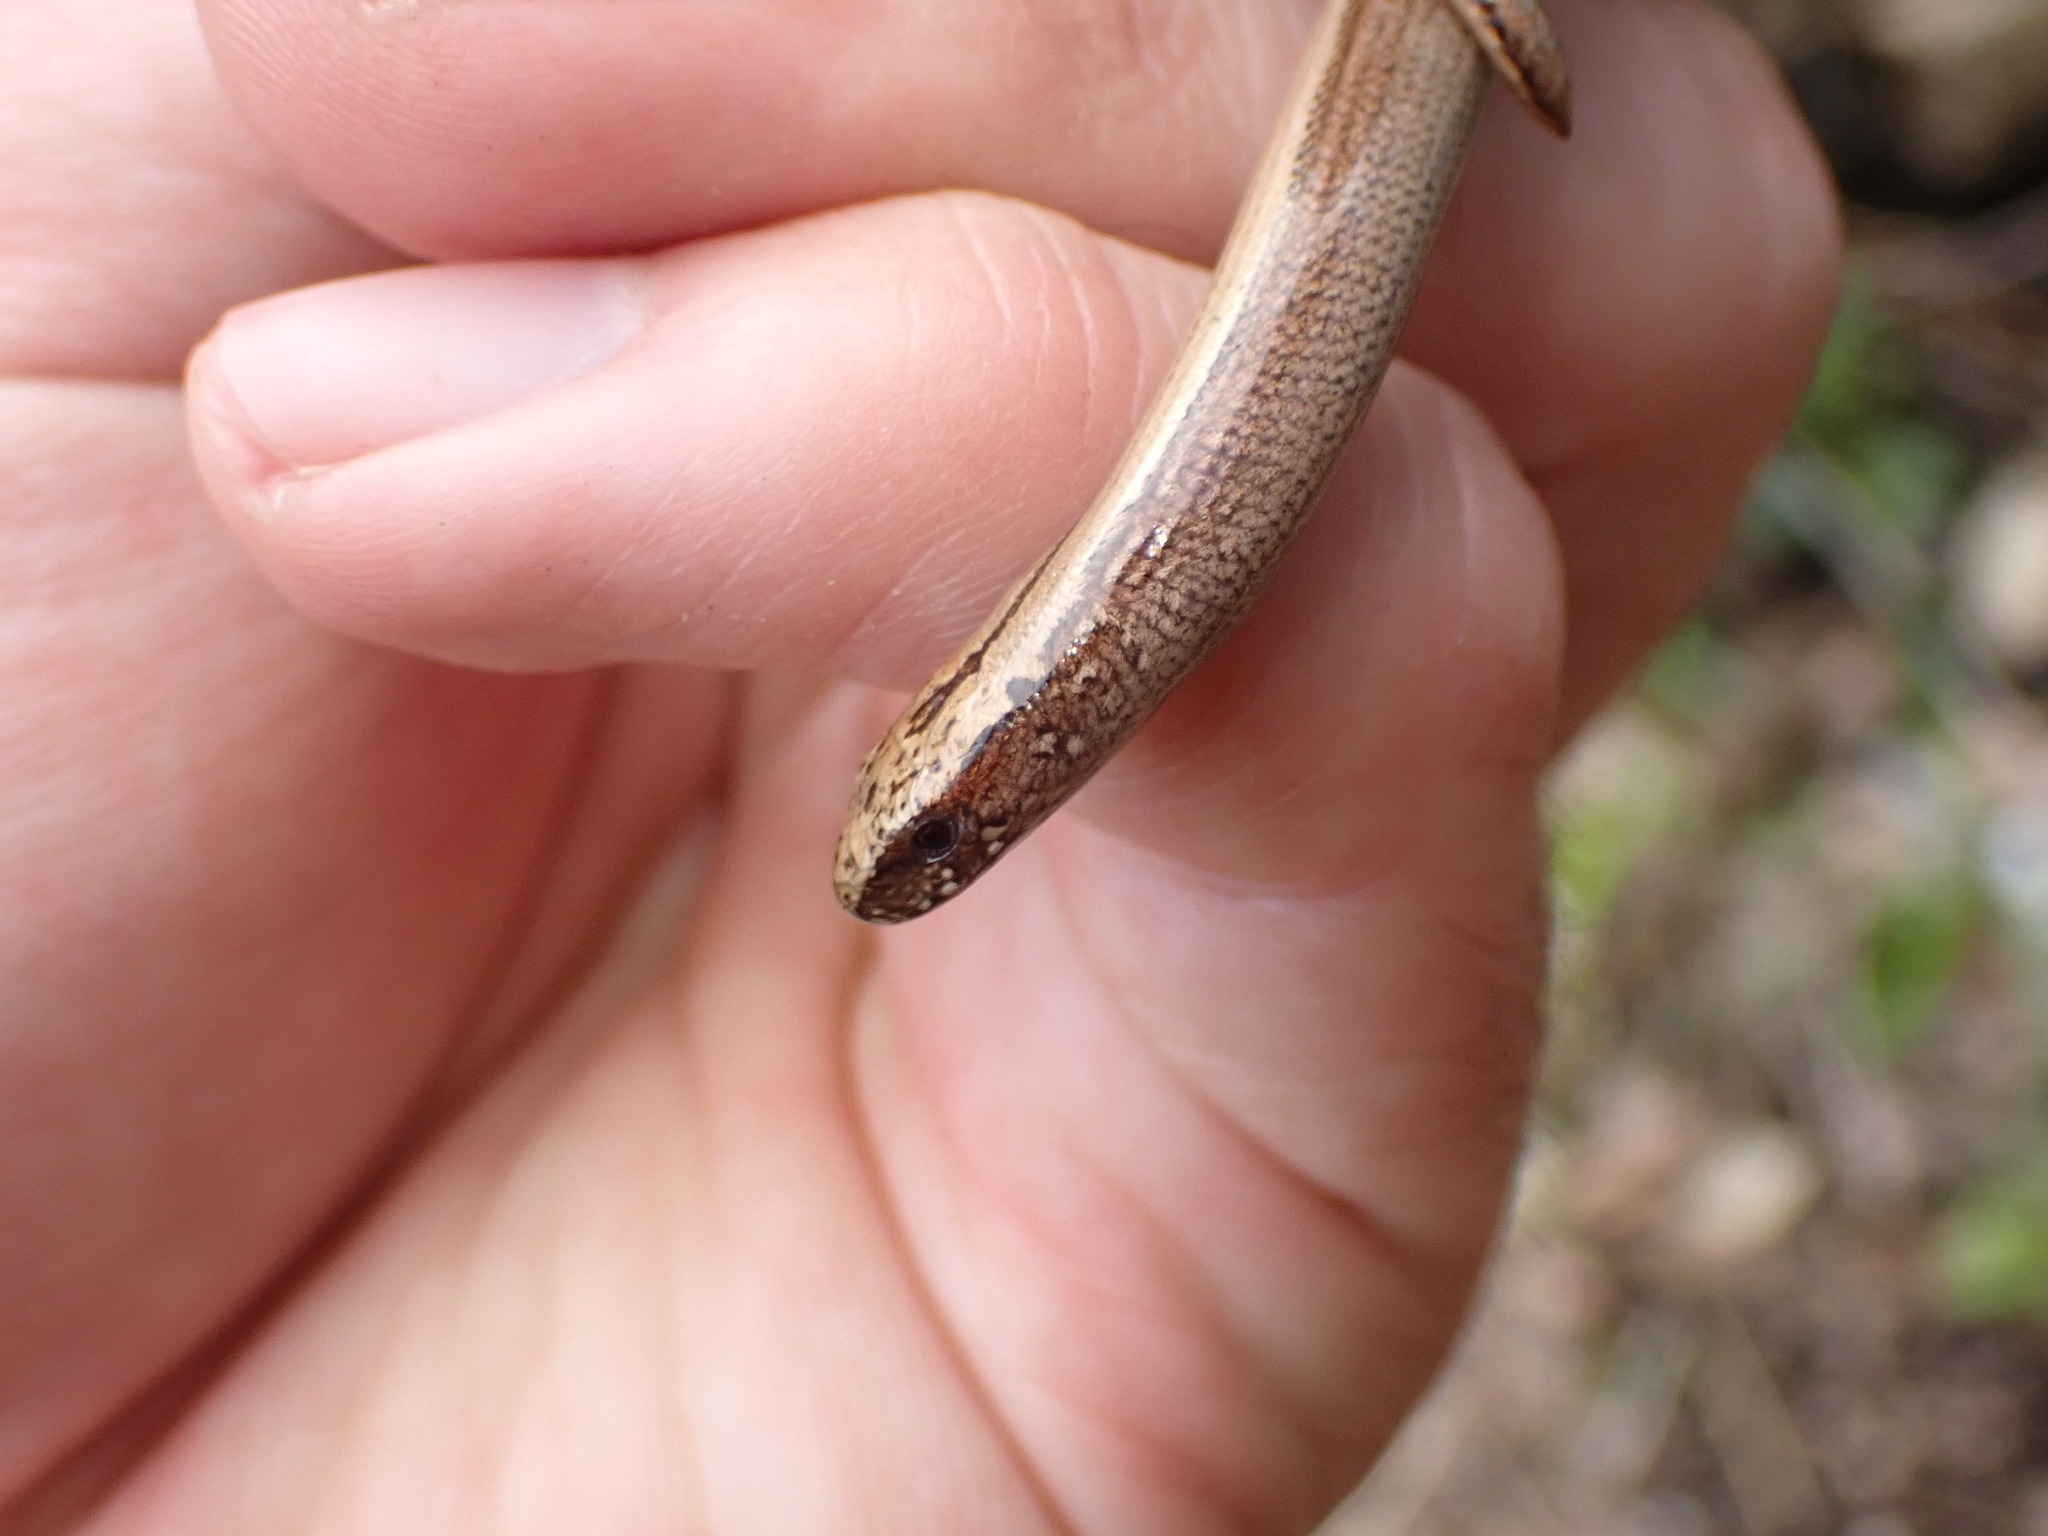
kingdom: Animalia
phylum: Chordata
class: Squamata
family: Anguidae
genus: Anguis
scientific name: Anguis fragilis
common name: Slow worm
